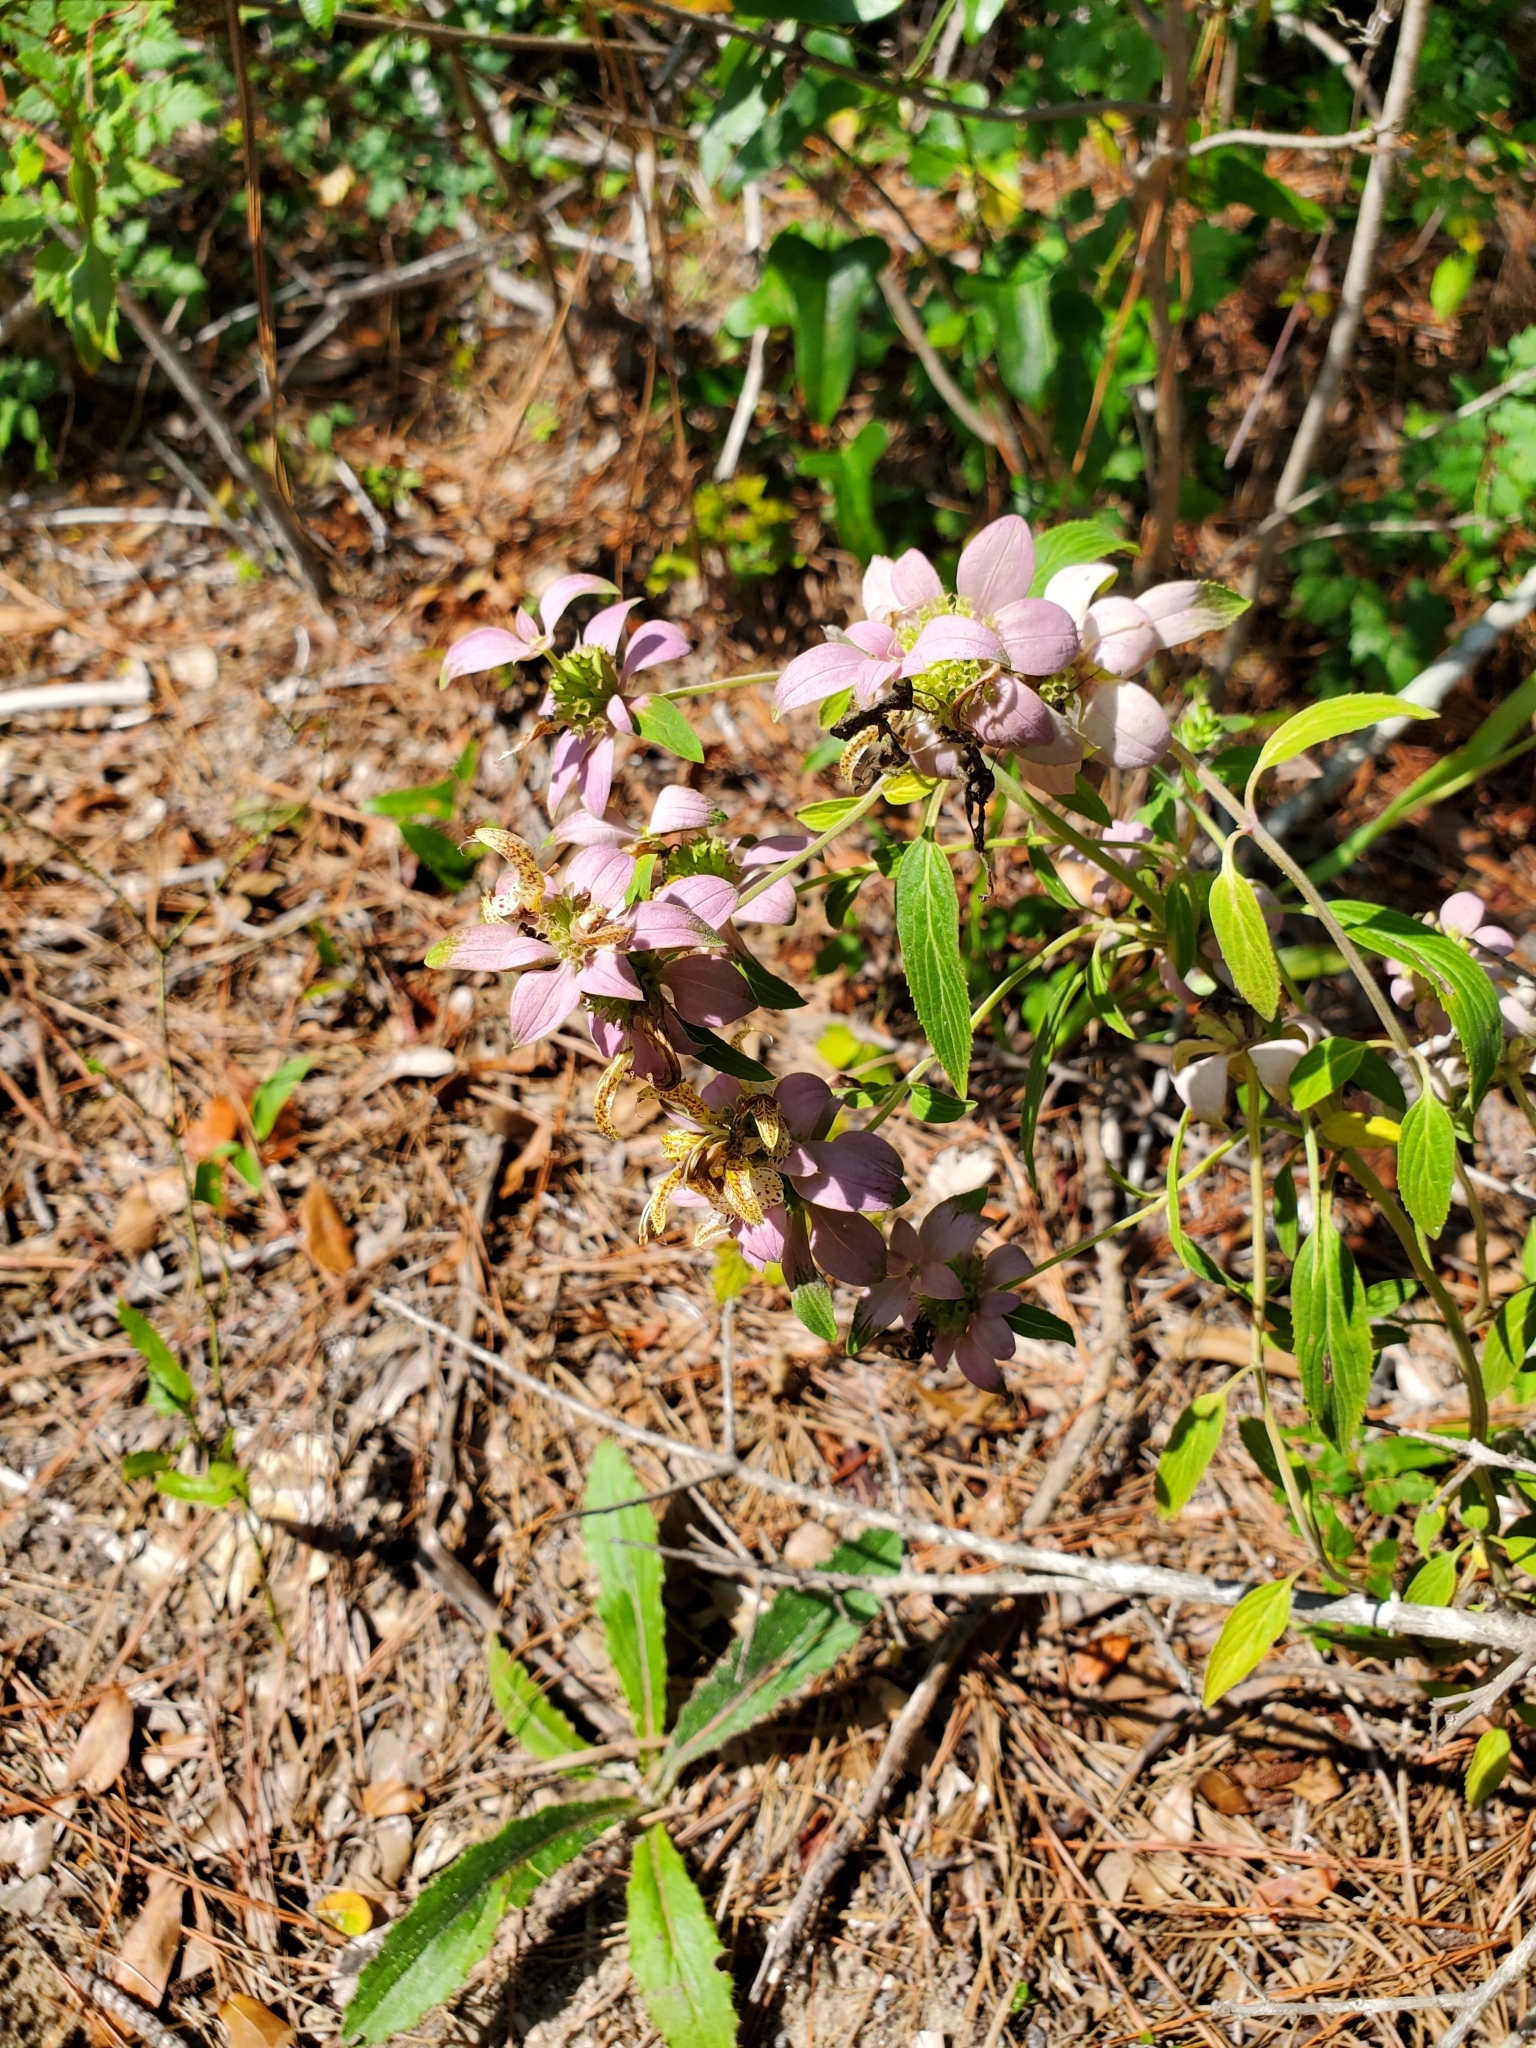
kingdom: Plantae
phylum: Tracheophyta
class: Magnoliopsida
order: Lamiales
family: Lamiaceae
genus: Monarda
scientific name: Monarda punctata
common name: Dotted monarda
